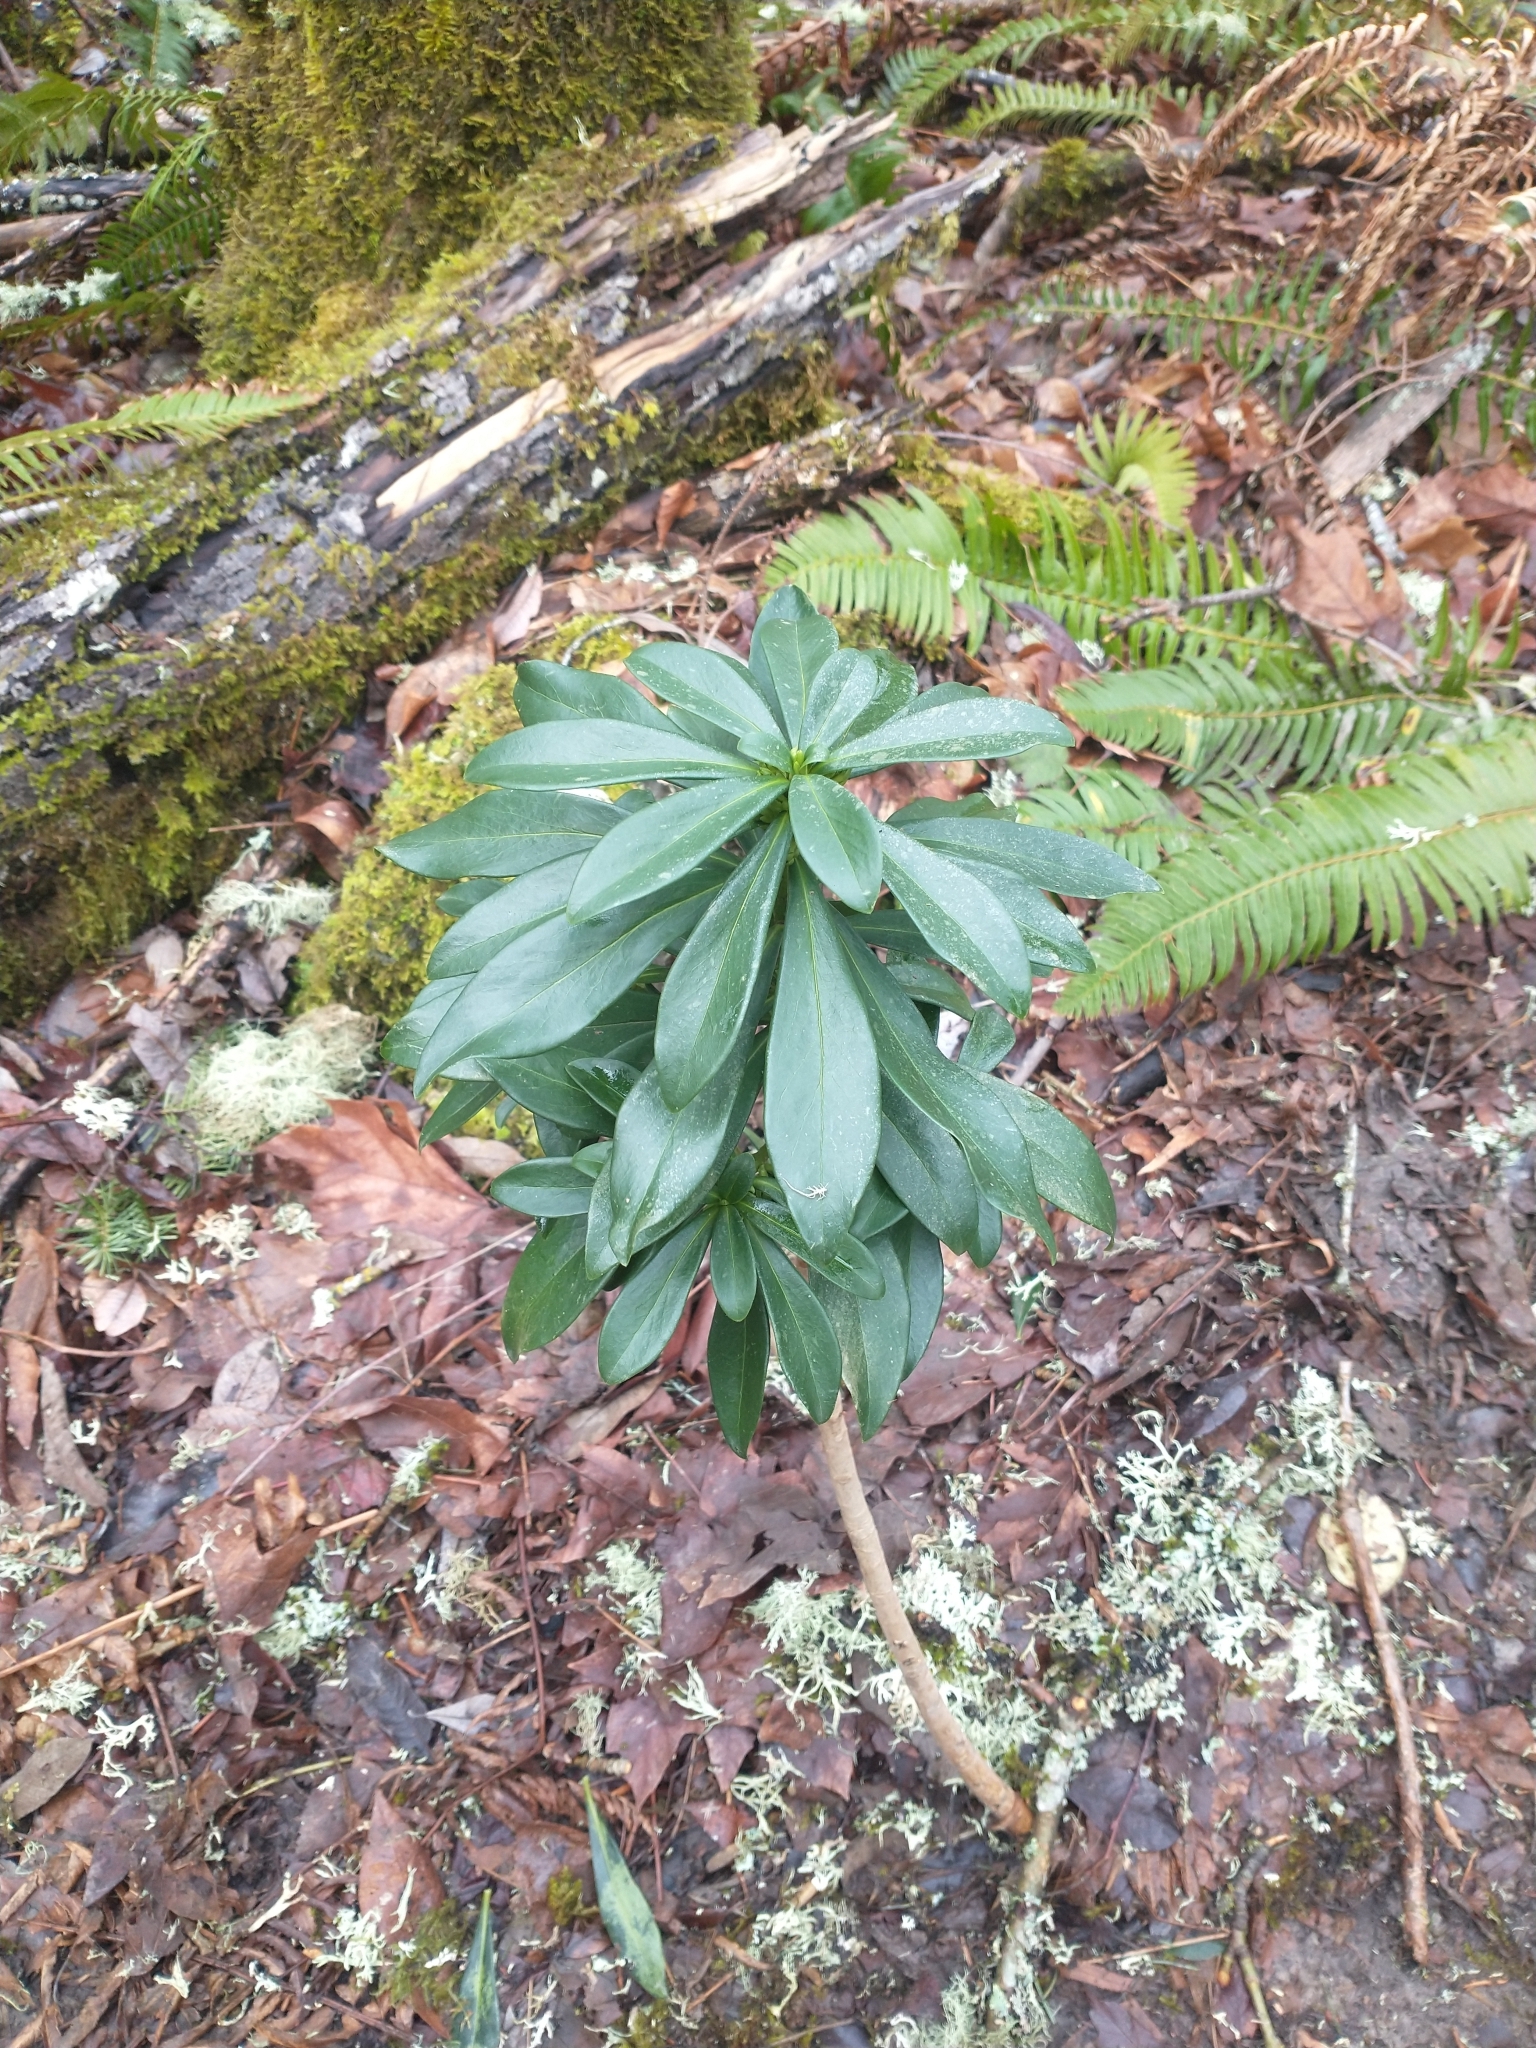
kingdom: Plantae
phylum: Tracheophyta
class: Magnoliopsida
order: Malvales
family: Thymelaeaceae
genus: Daphne
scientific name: Daphne laureola
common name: Spurge-laurel
